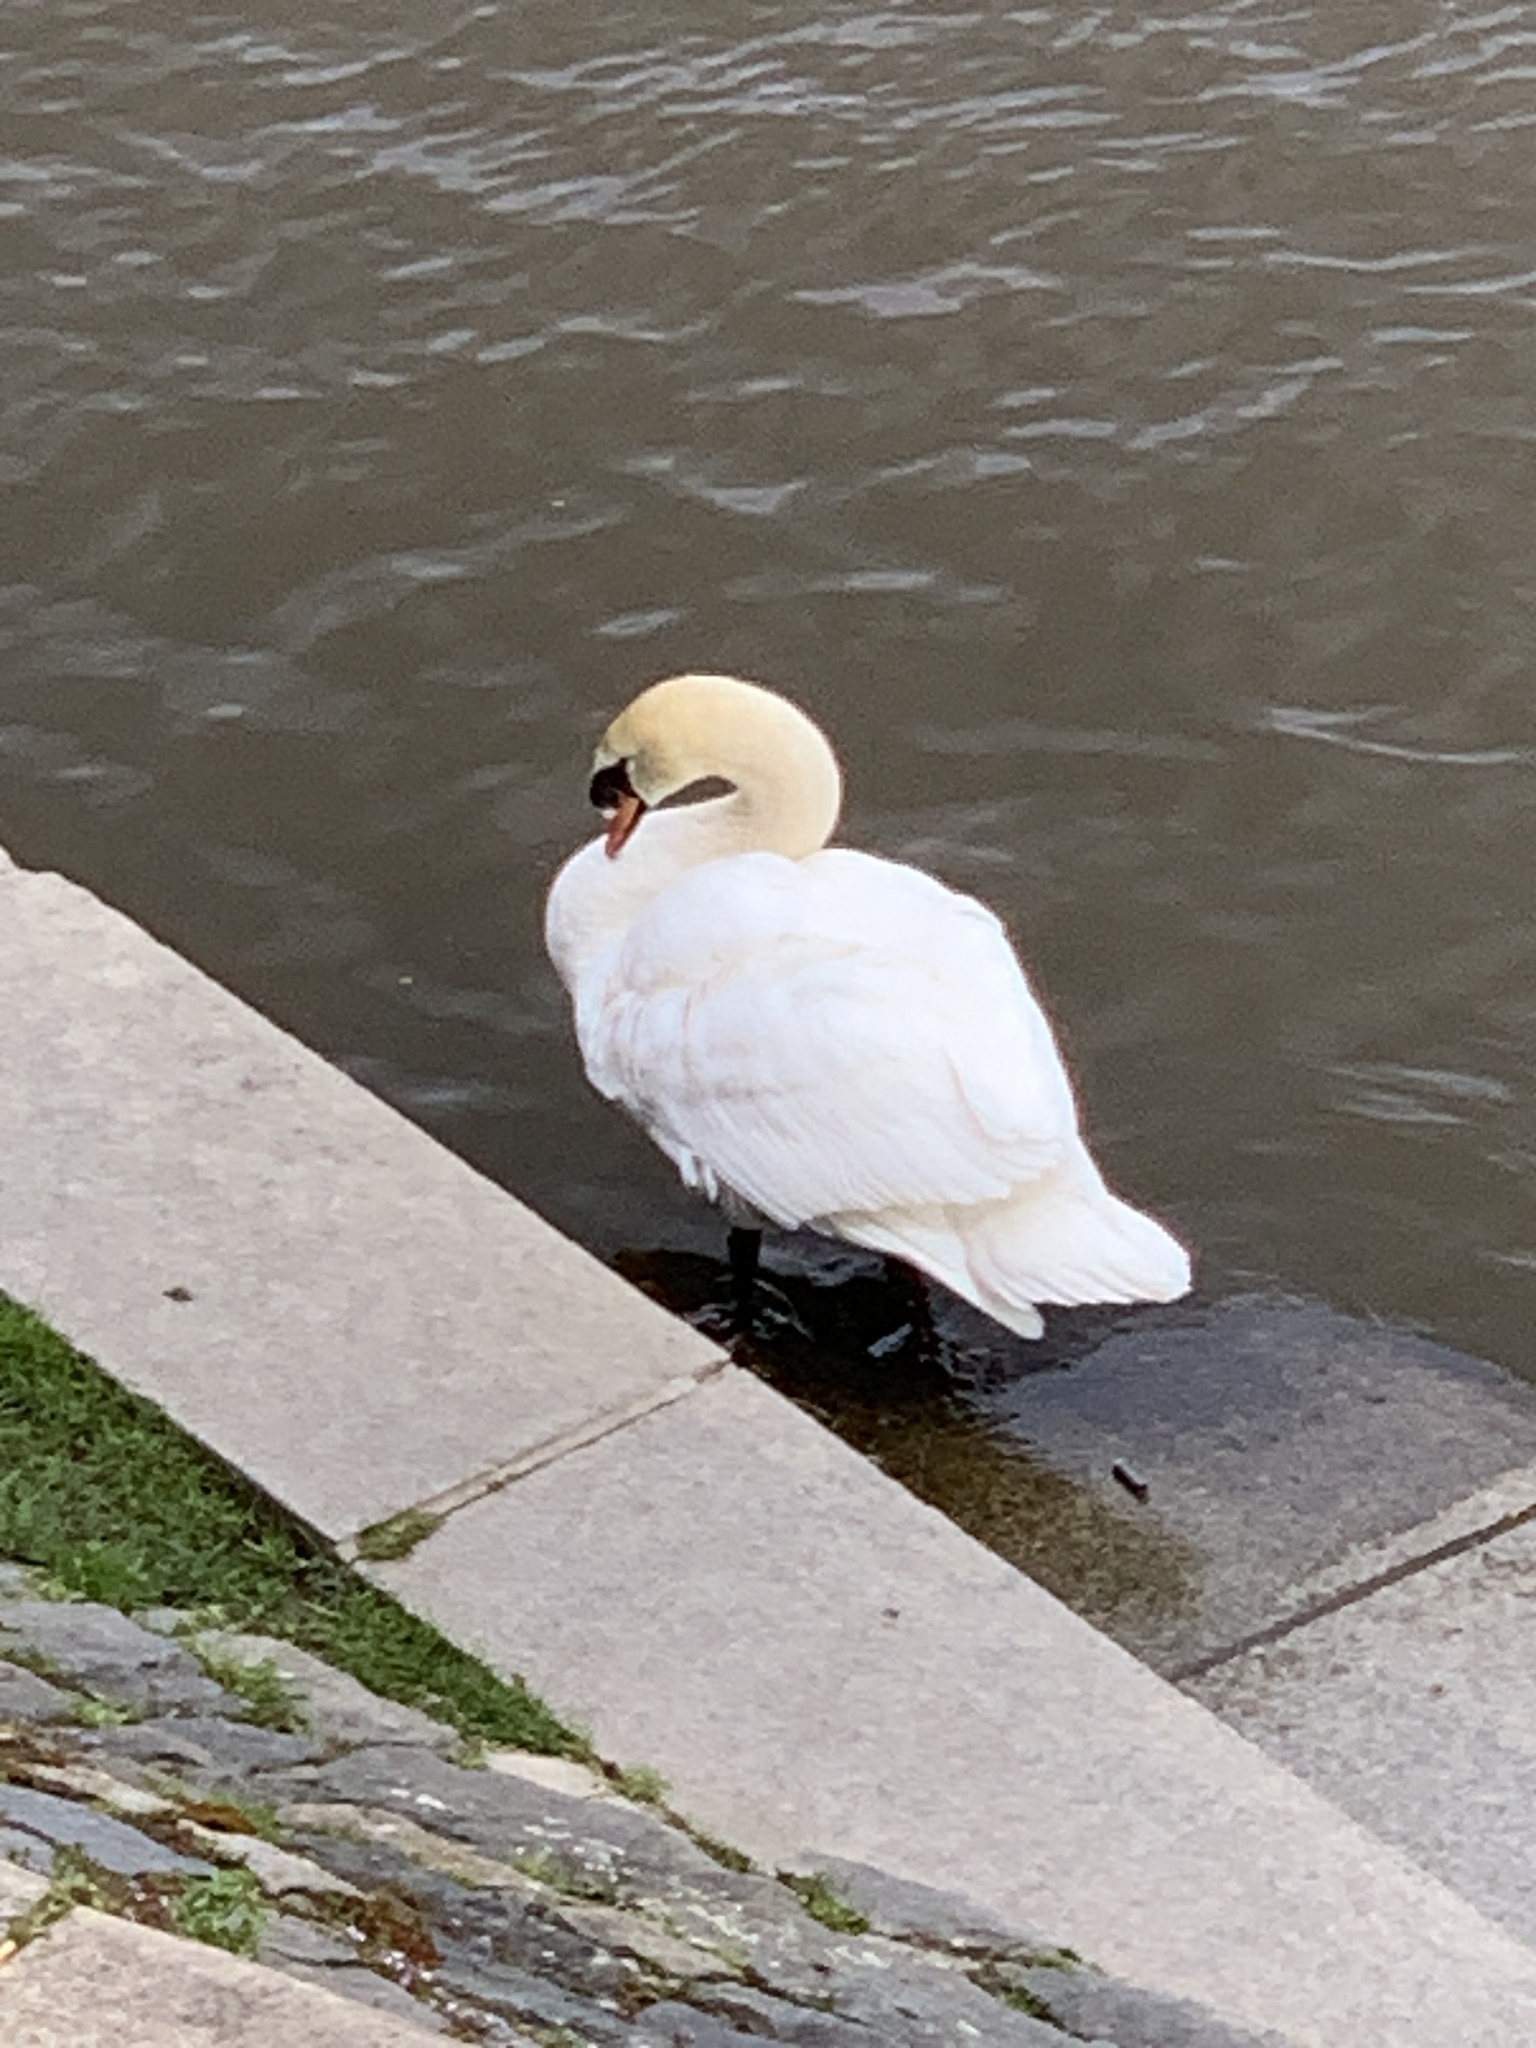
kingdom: Animalia
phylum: Chordata
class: Aves
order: Anseriformes
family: Anatidae
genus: Cygnus
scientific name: Cygnus olor
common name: Mute swan
